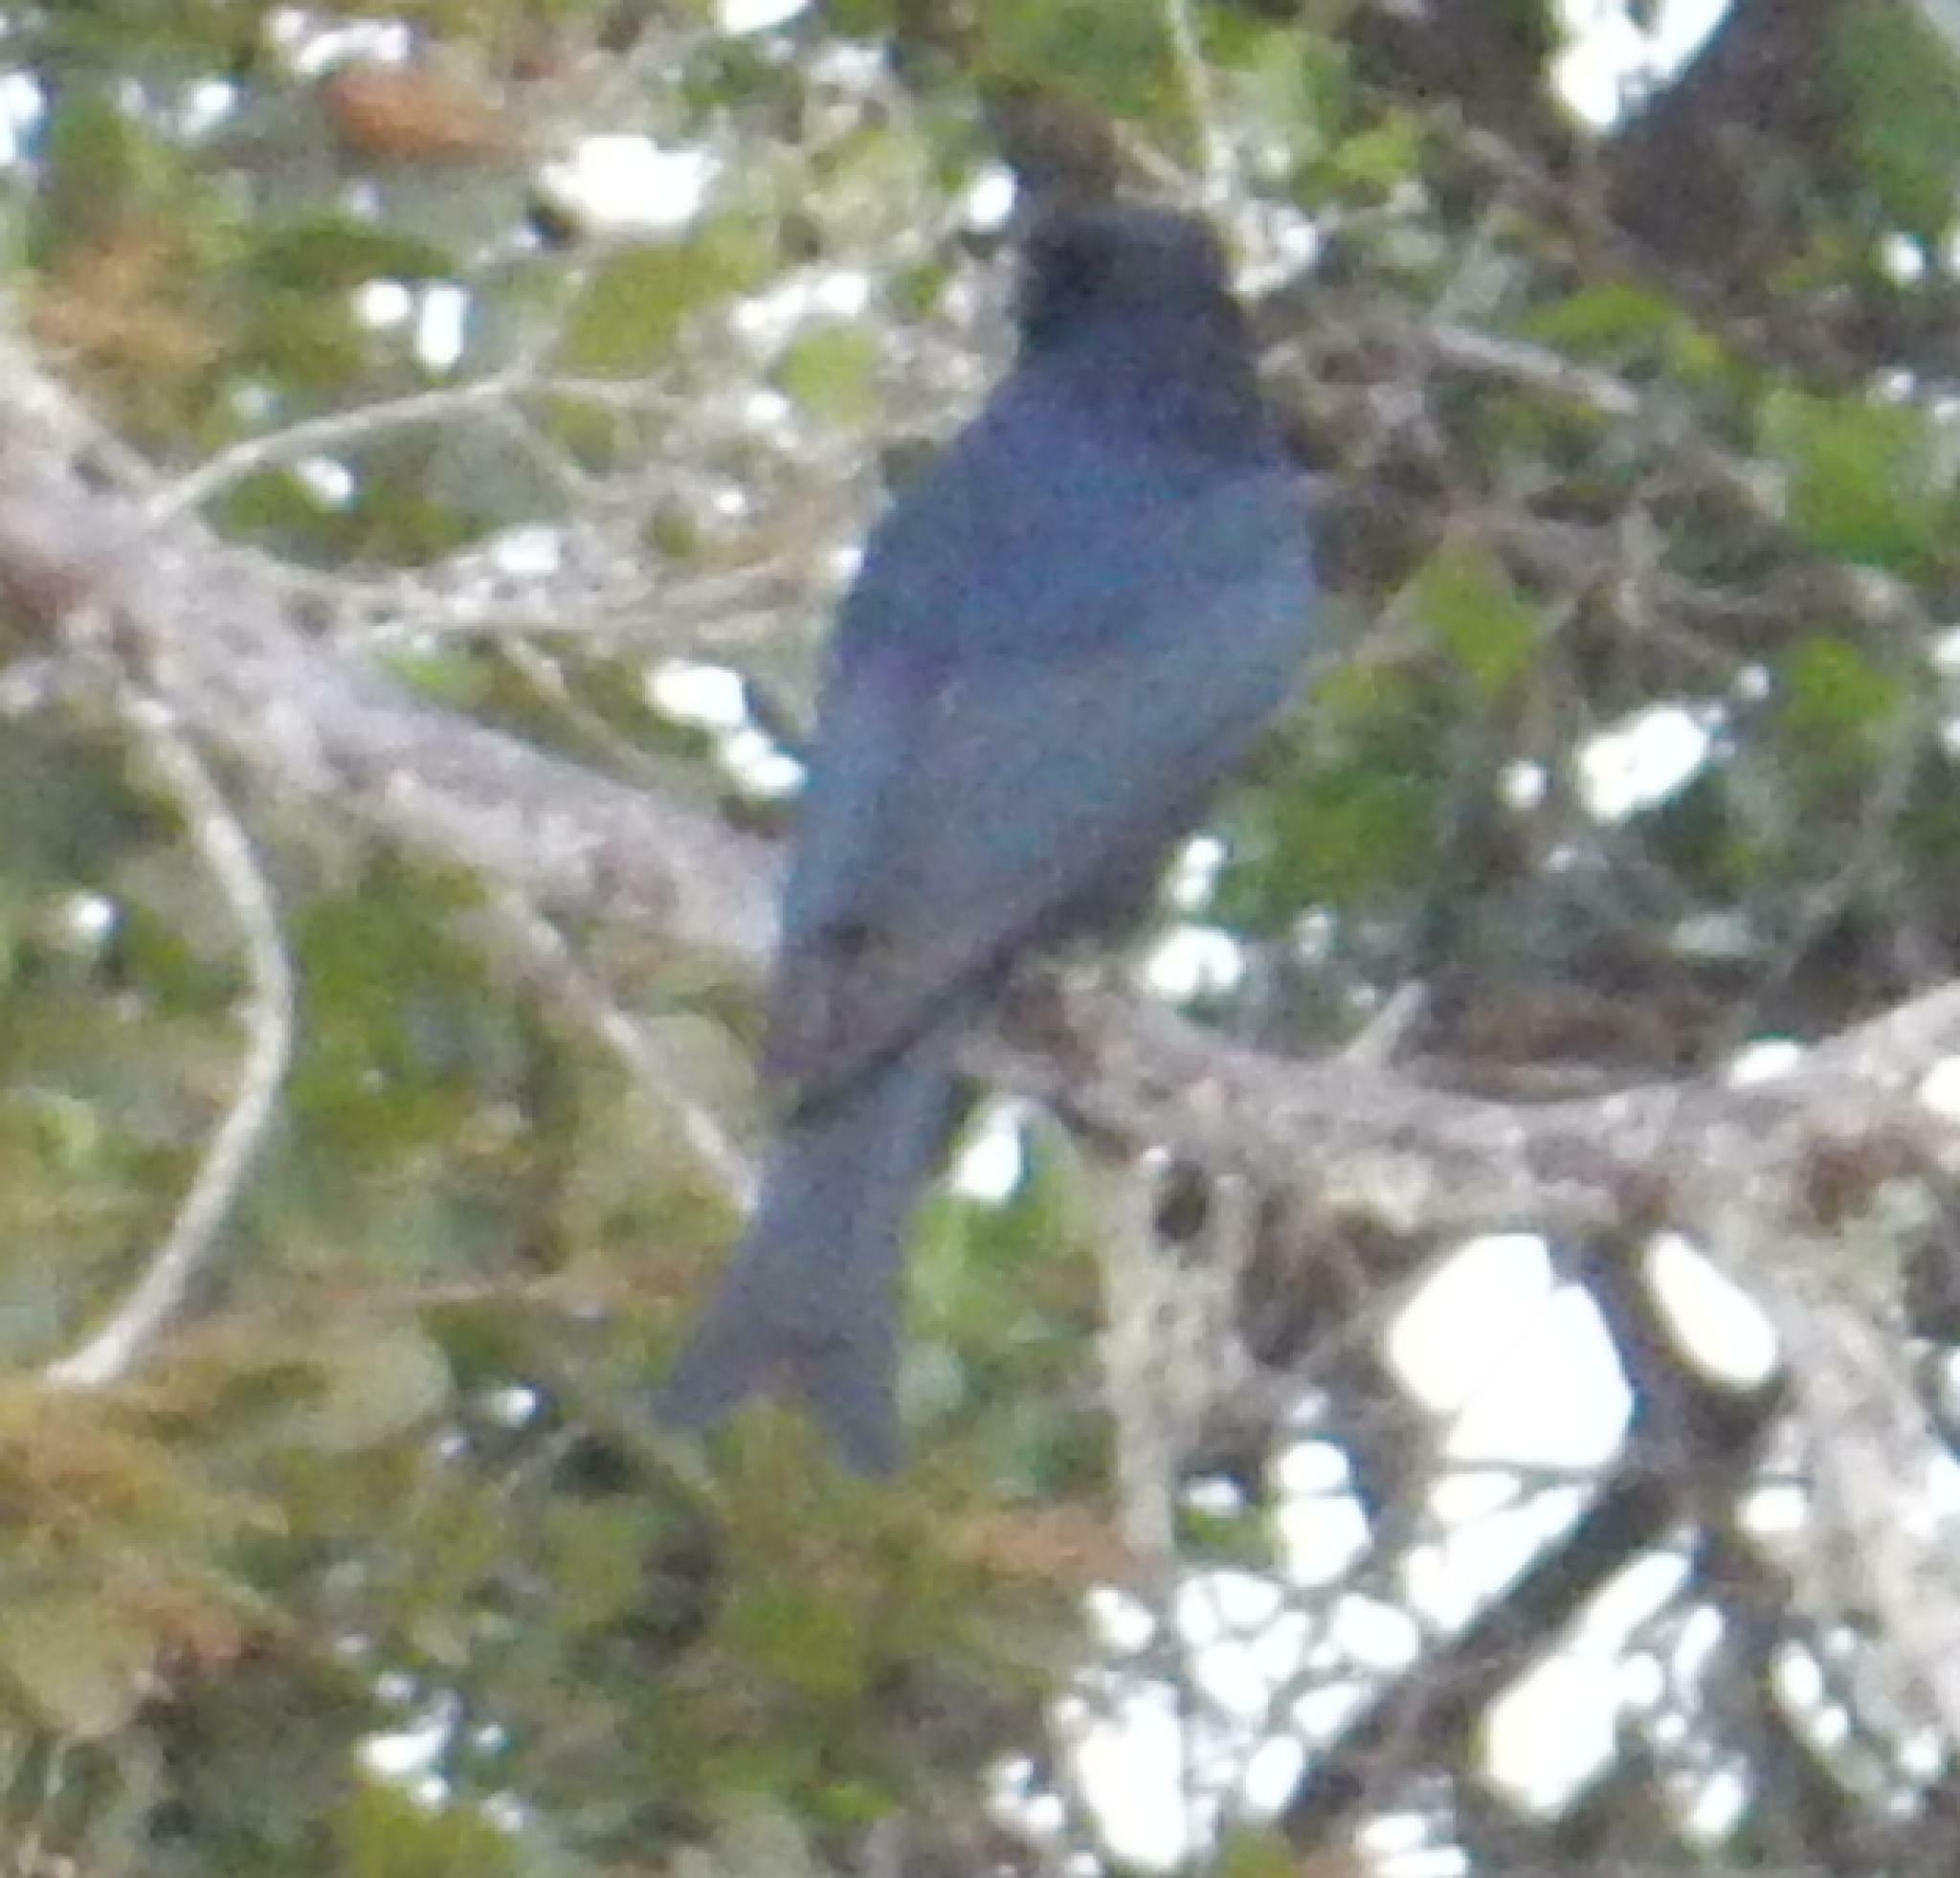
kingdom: Animalia
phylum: Chordata
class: Aves
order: Passeriformes
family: Dicruridae
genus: Dicrurus
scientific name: Dicrurus adsimilis
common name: Fork-tailed drongo
